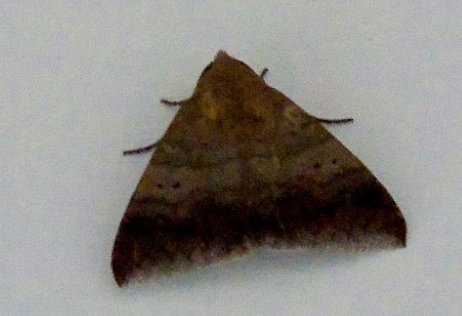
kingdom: Animalia
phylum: Arthropoda
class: Insecta
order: Lepidoptera
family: Erebidae
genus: Ophisma
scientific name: Ophisma tropicalis
